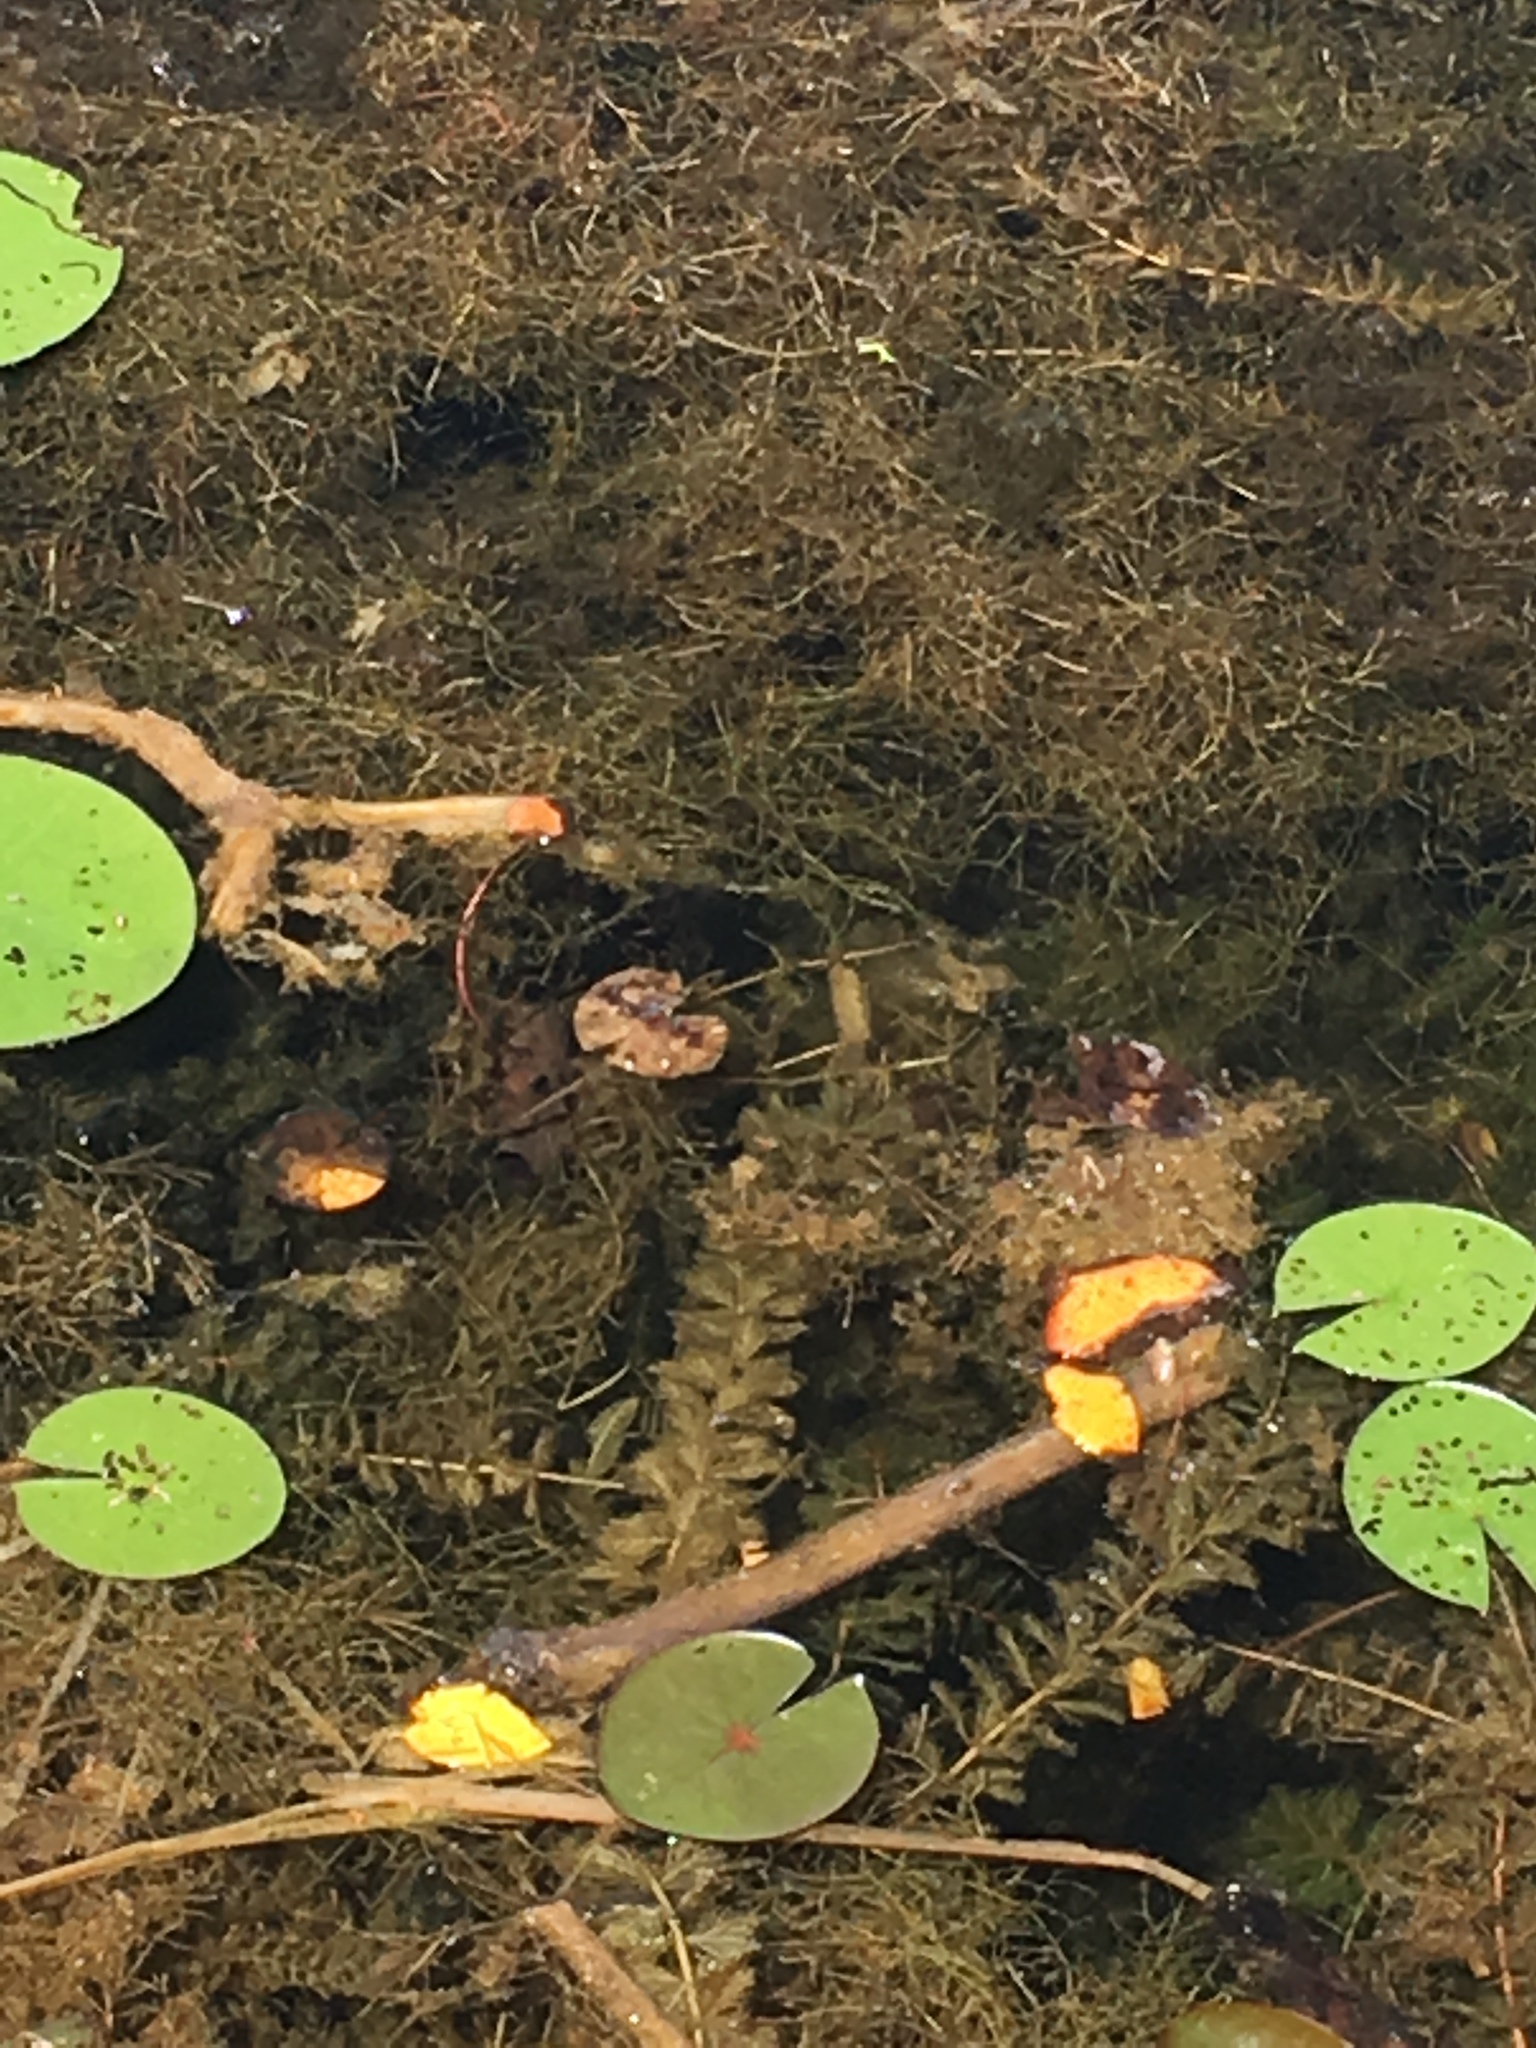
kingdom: Plantae
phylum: Tracheophyta
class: Magnoliopsida
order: Saxifragales
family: Haloragaceae
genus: Myriophyllum
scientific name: Myriophyllum spicatum
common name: Spiked water-milfoil
